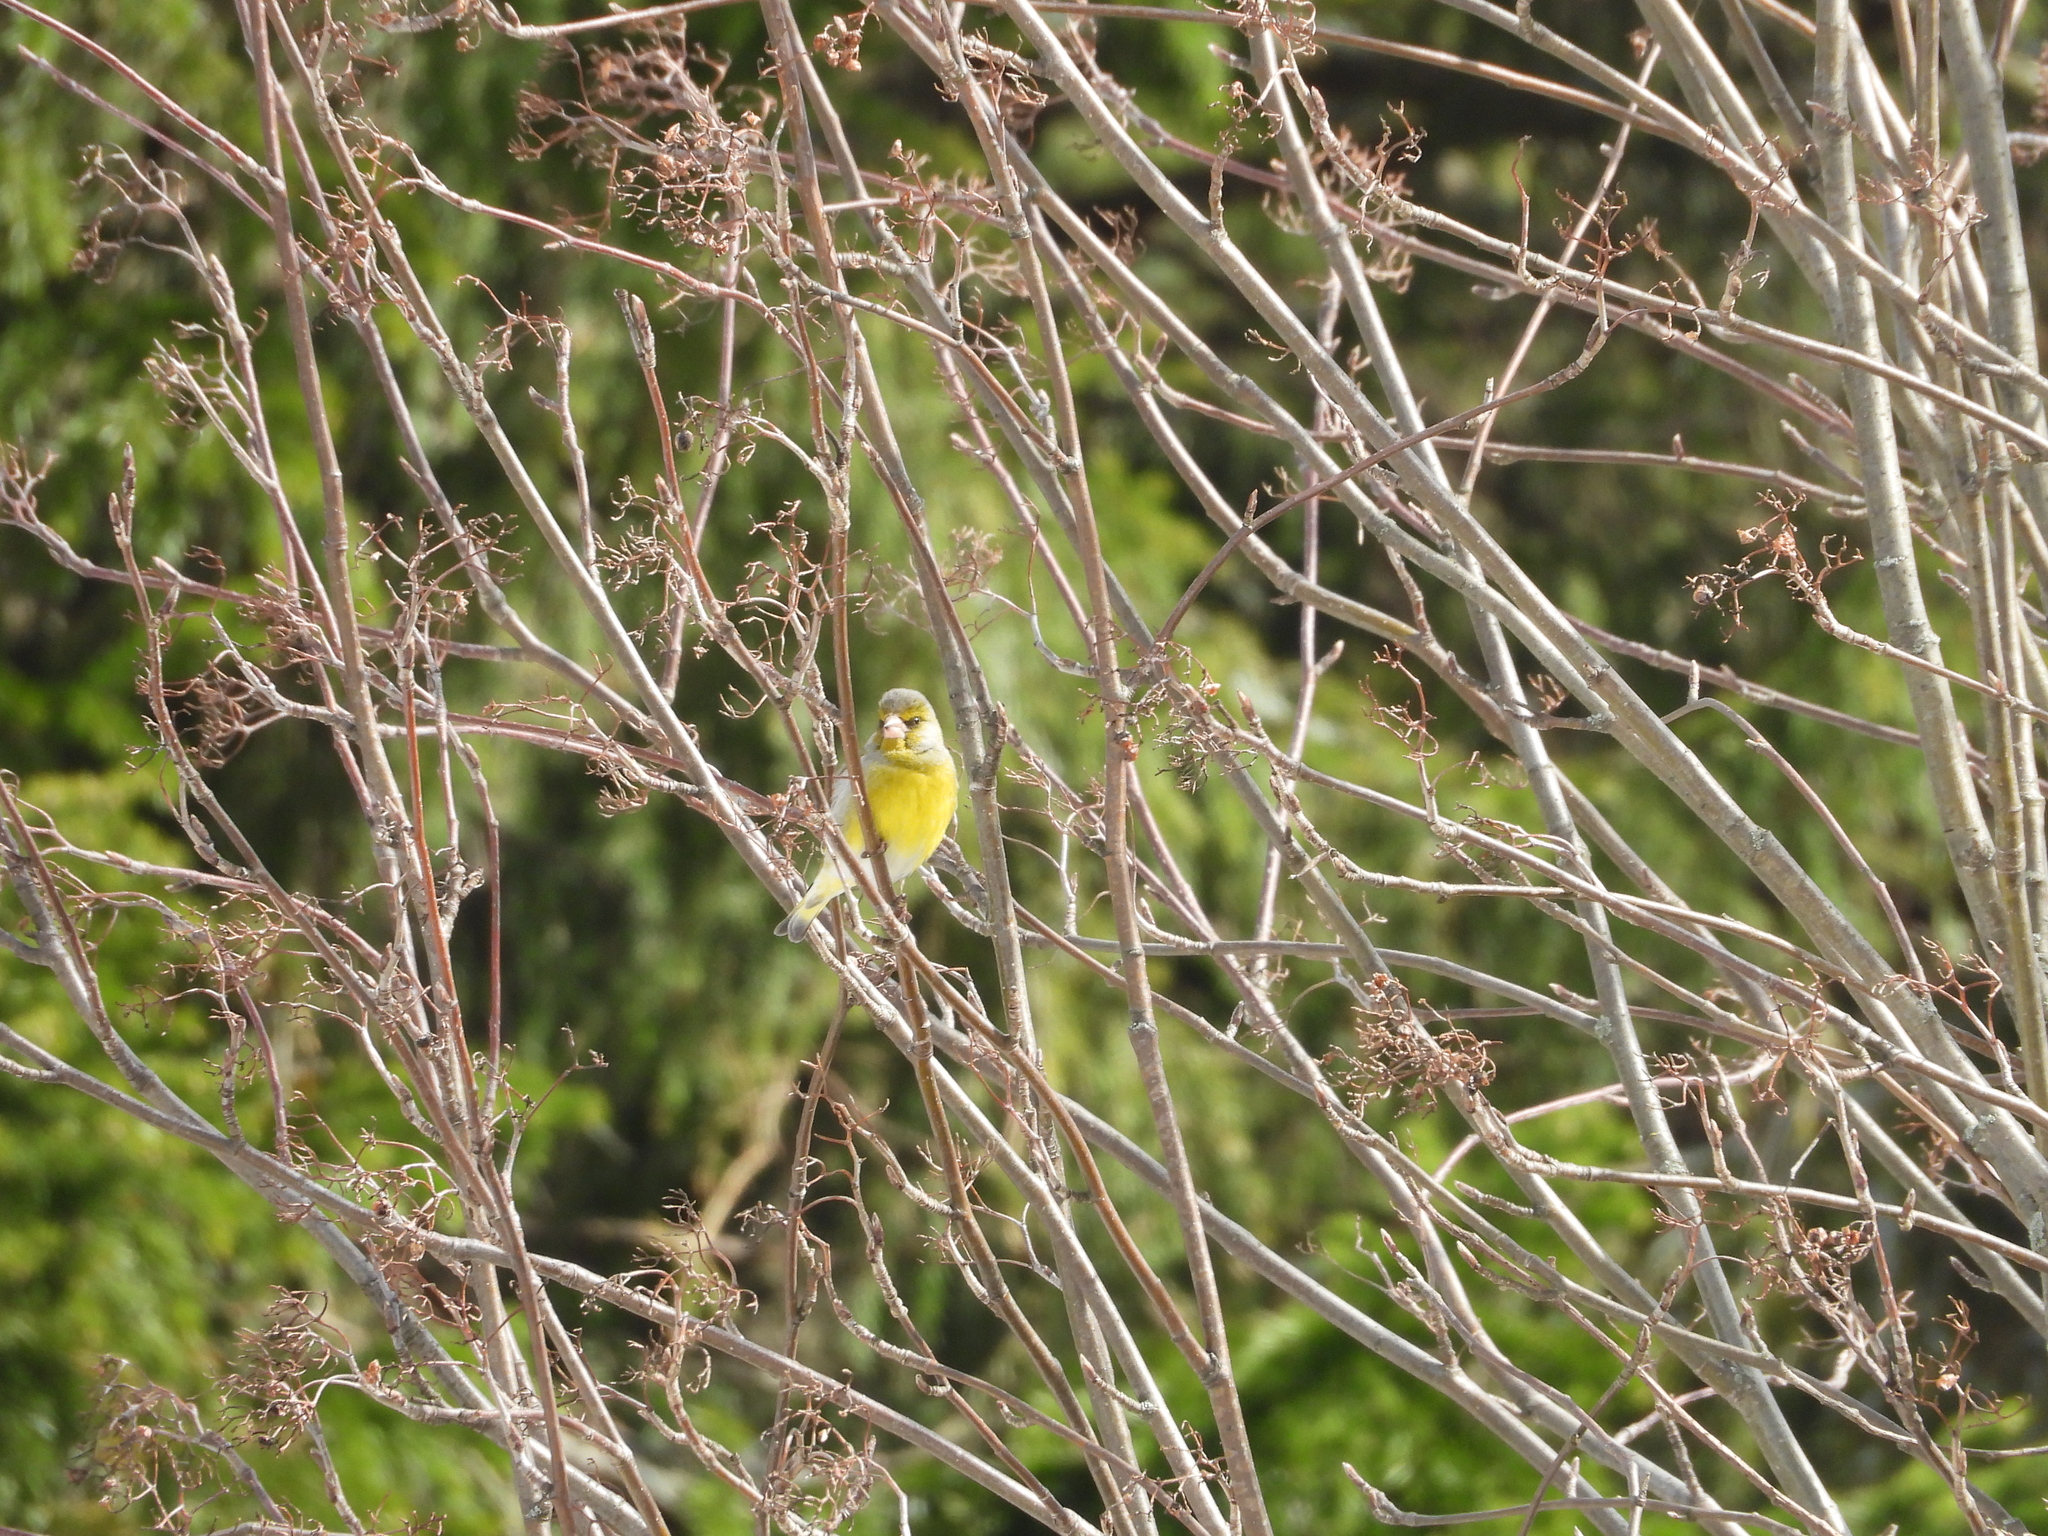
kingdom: Plantae
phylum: Tracheophyta
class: Liliopsida
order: Poales
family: Poaceae
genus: Chloris
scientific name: Chloris chloris
